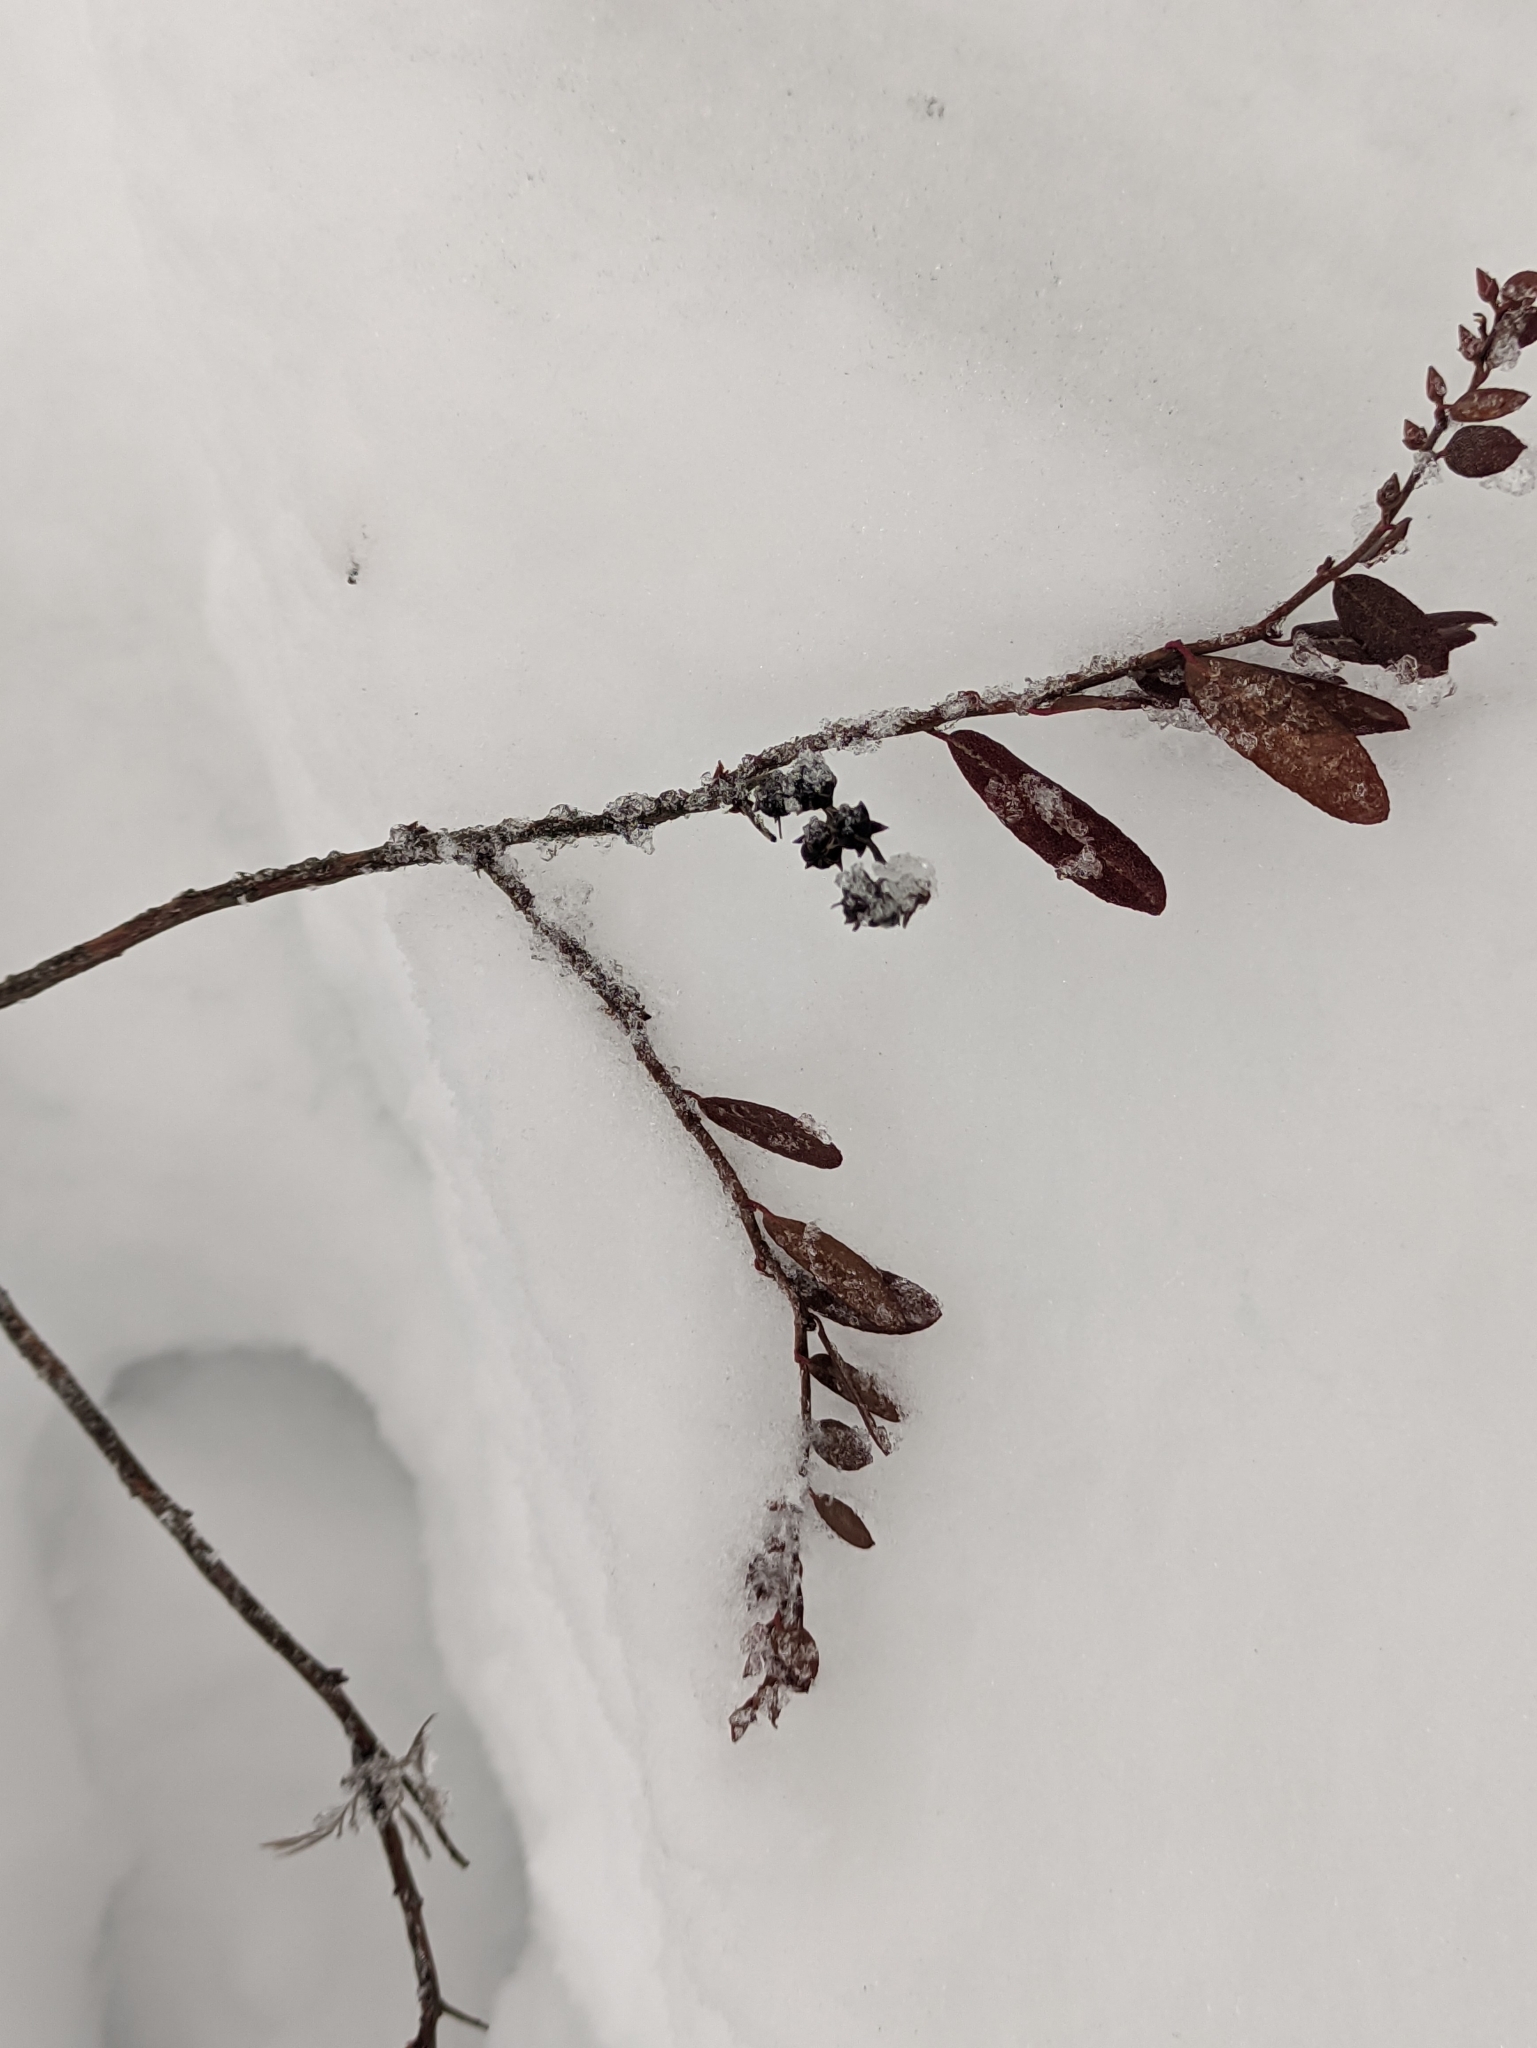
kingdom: Plantae
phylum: Tracheophyta
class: Magnoliopsida
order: Ericales
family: Ericaceae
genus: Chamaedaphne
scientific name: Chamaedaphne calyculata
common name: Leatherleaf
